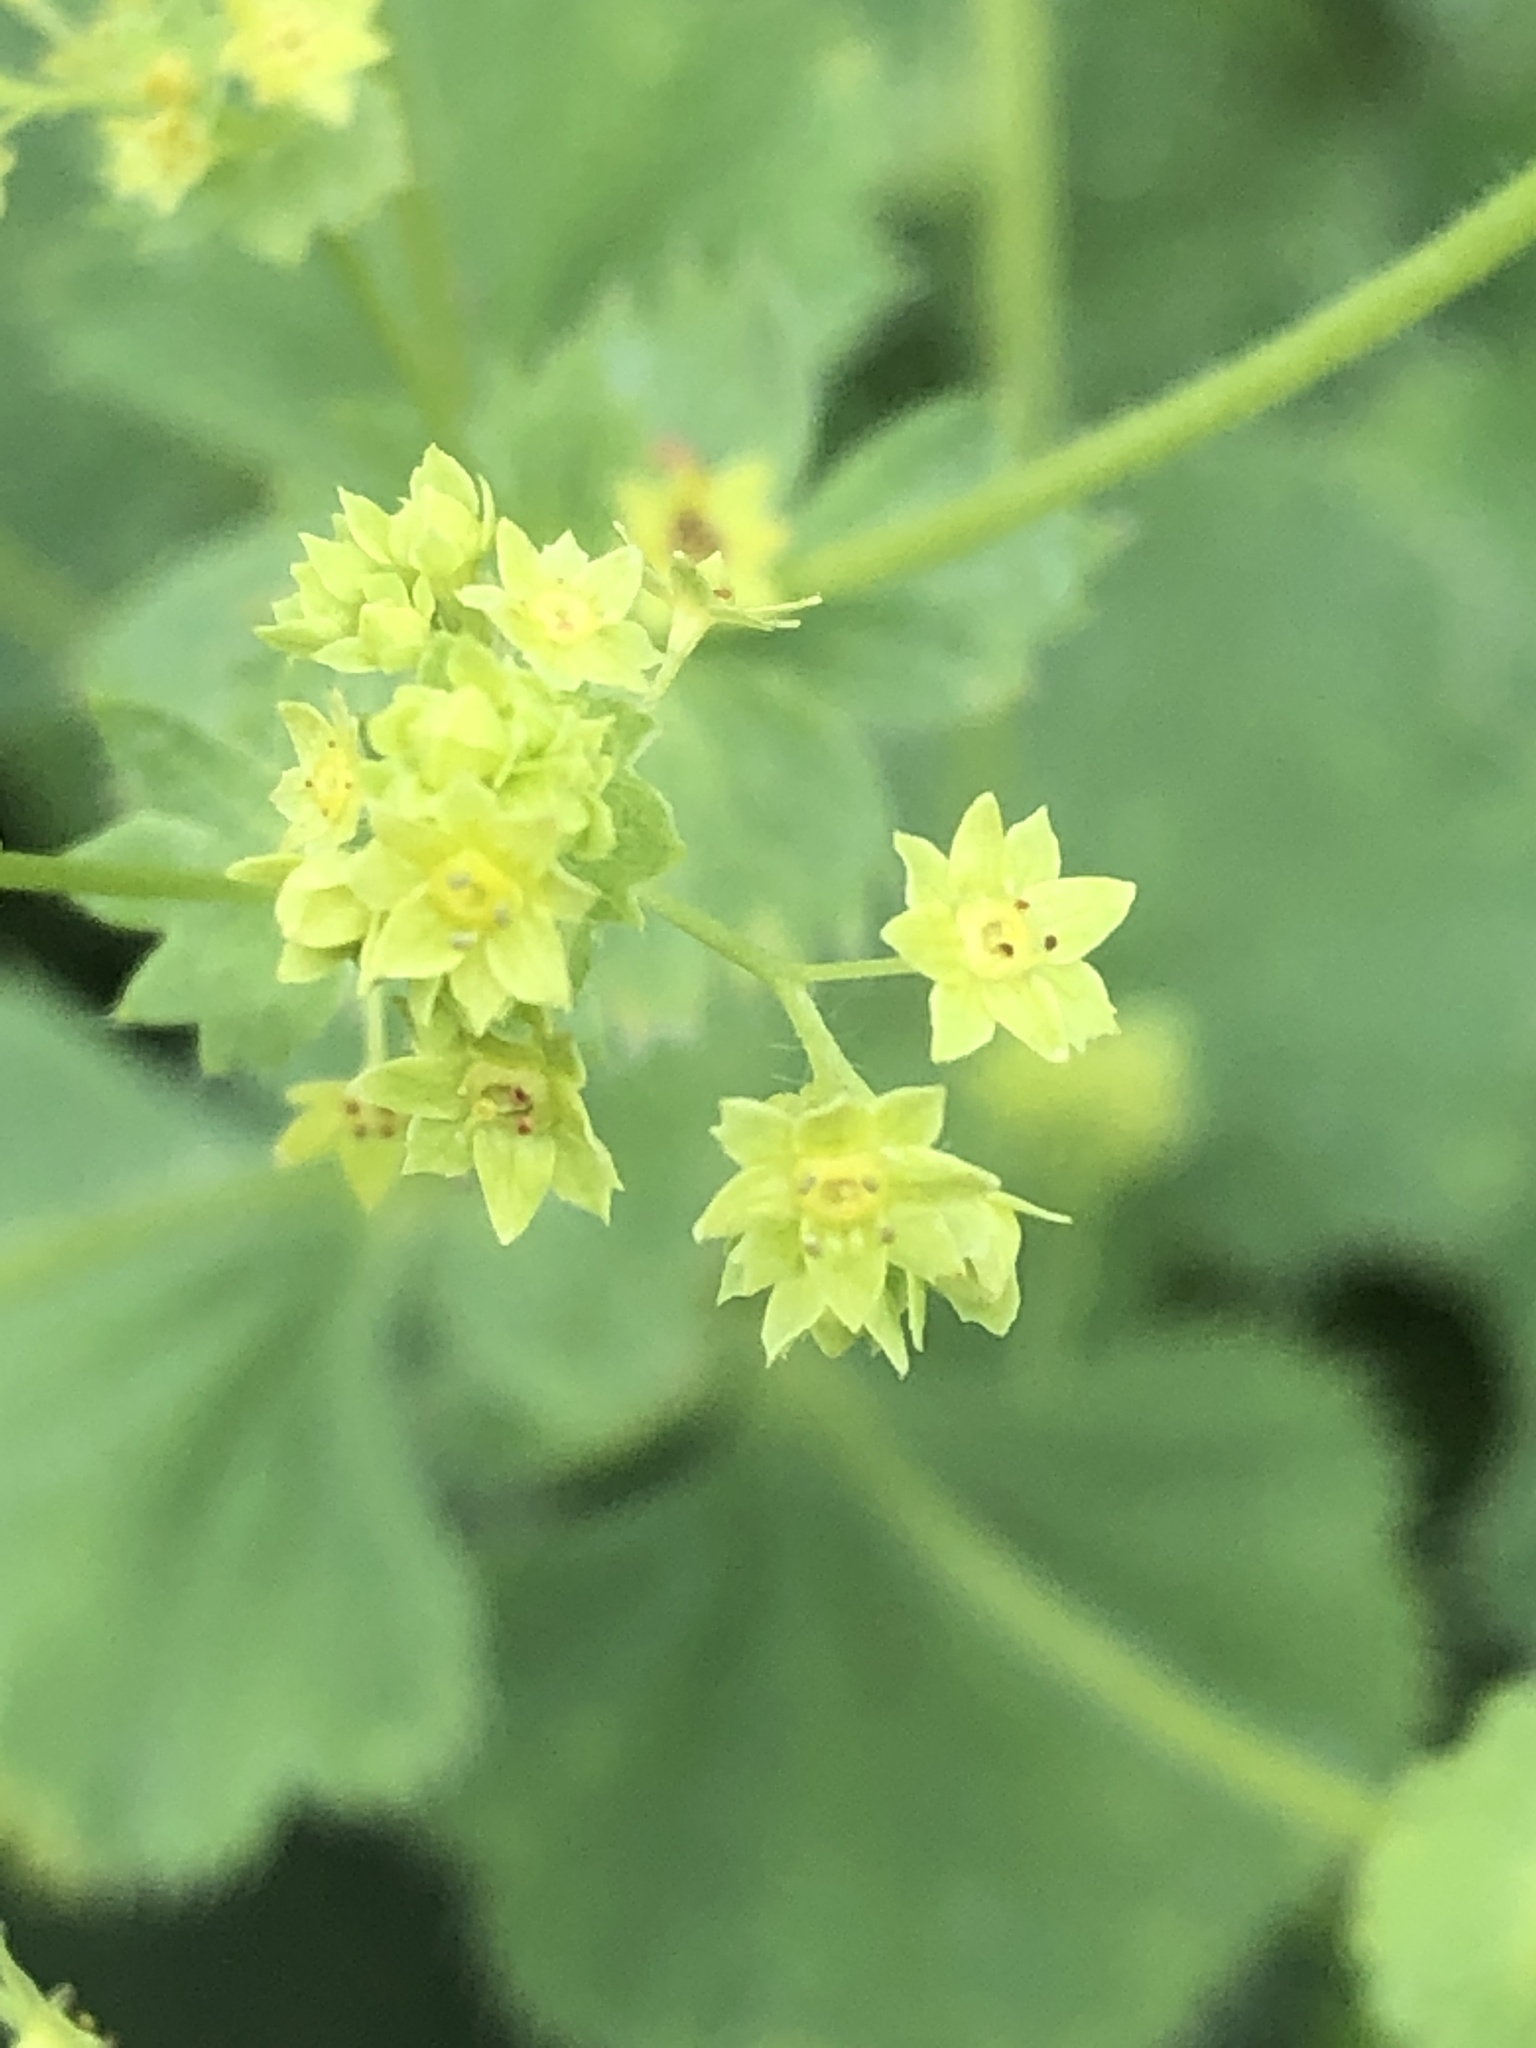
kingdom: Plantae
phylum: Tracheophyta
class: Magnoliopsida
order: Rosales
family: Rosaceae
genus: Alchemilla
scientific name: Alchemilla mollis
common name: Lady's-mantle
